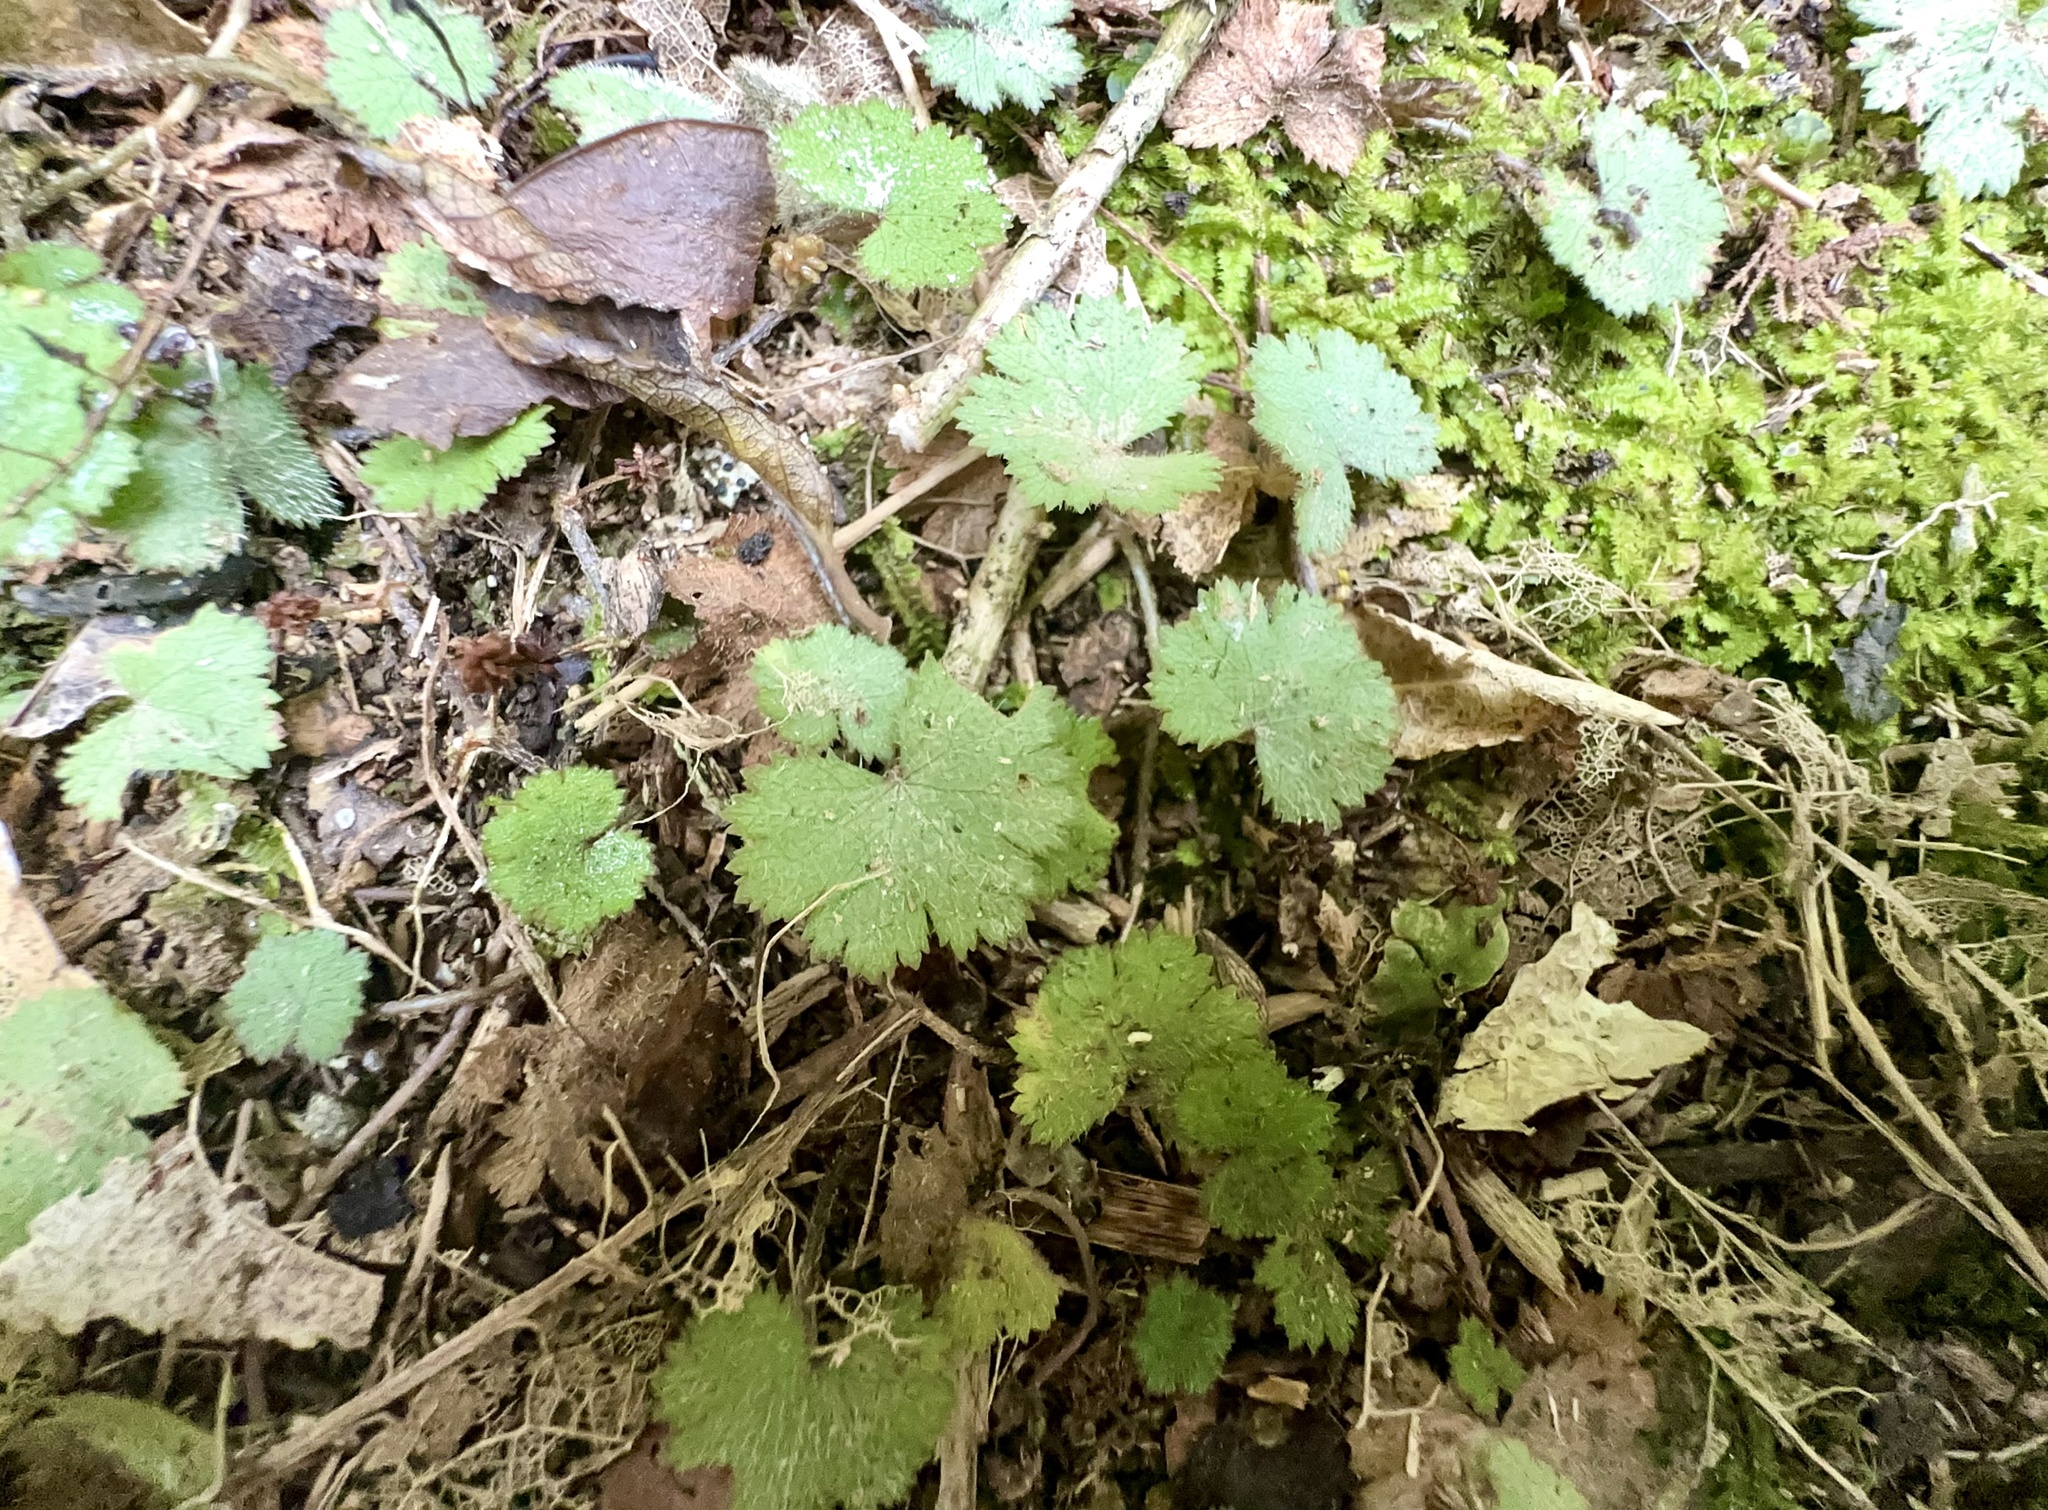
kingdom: Plantae
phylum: Tracheophyta
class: Magnoliopsida
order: Apiales
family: Araliaceae
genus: Hydrocotyle
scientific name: Hydrocotyle moschata
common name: Hairy pennywort
